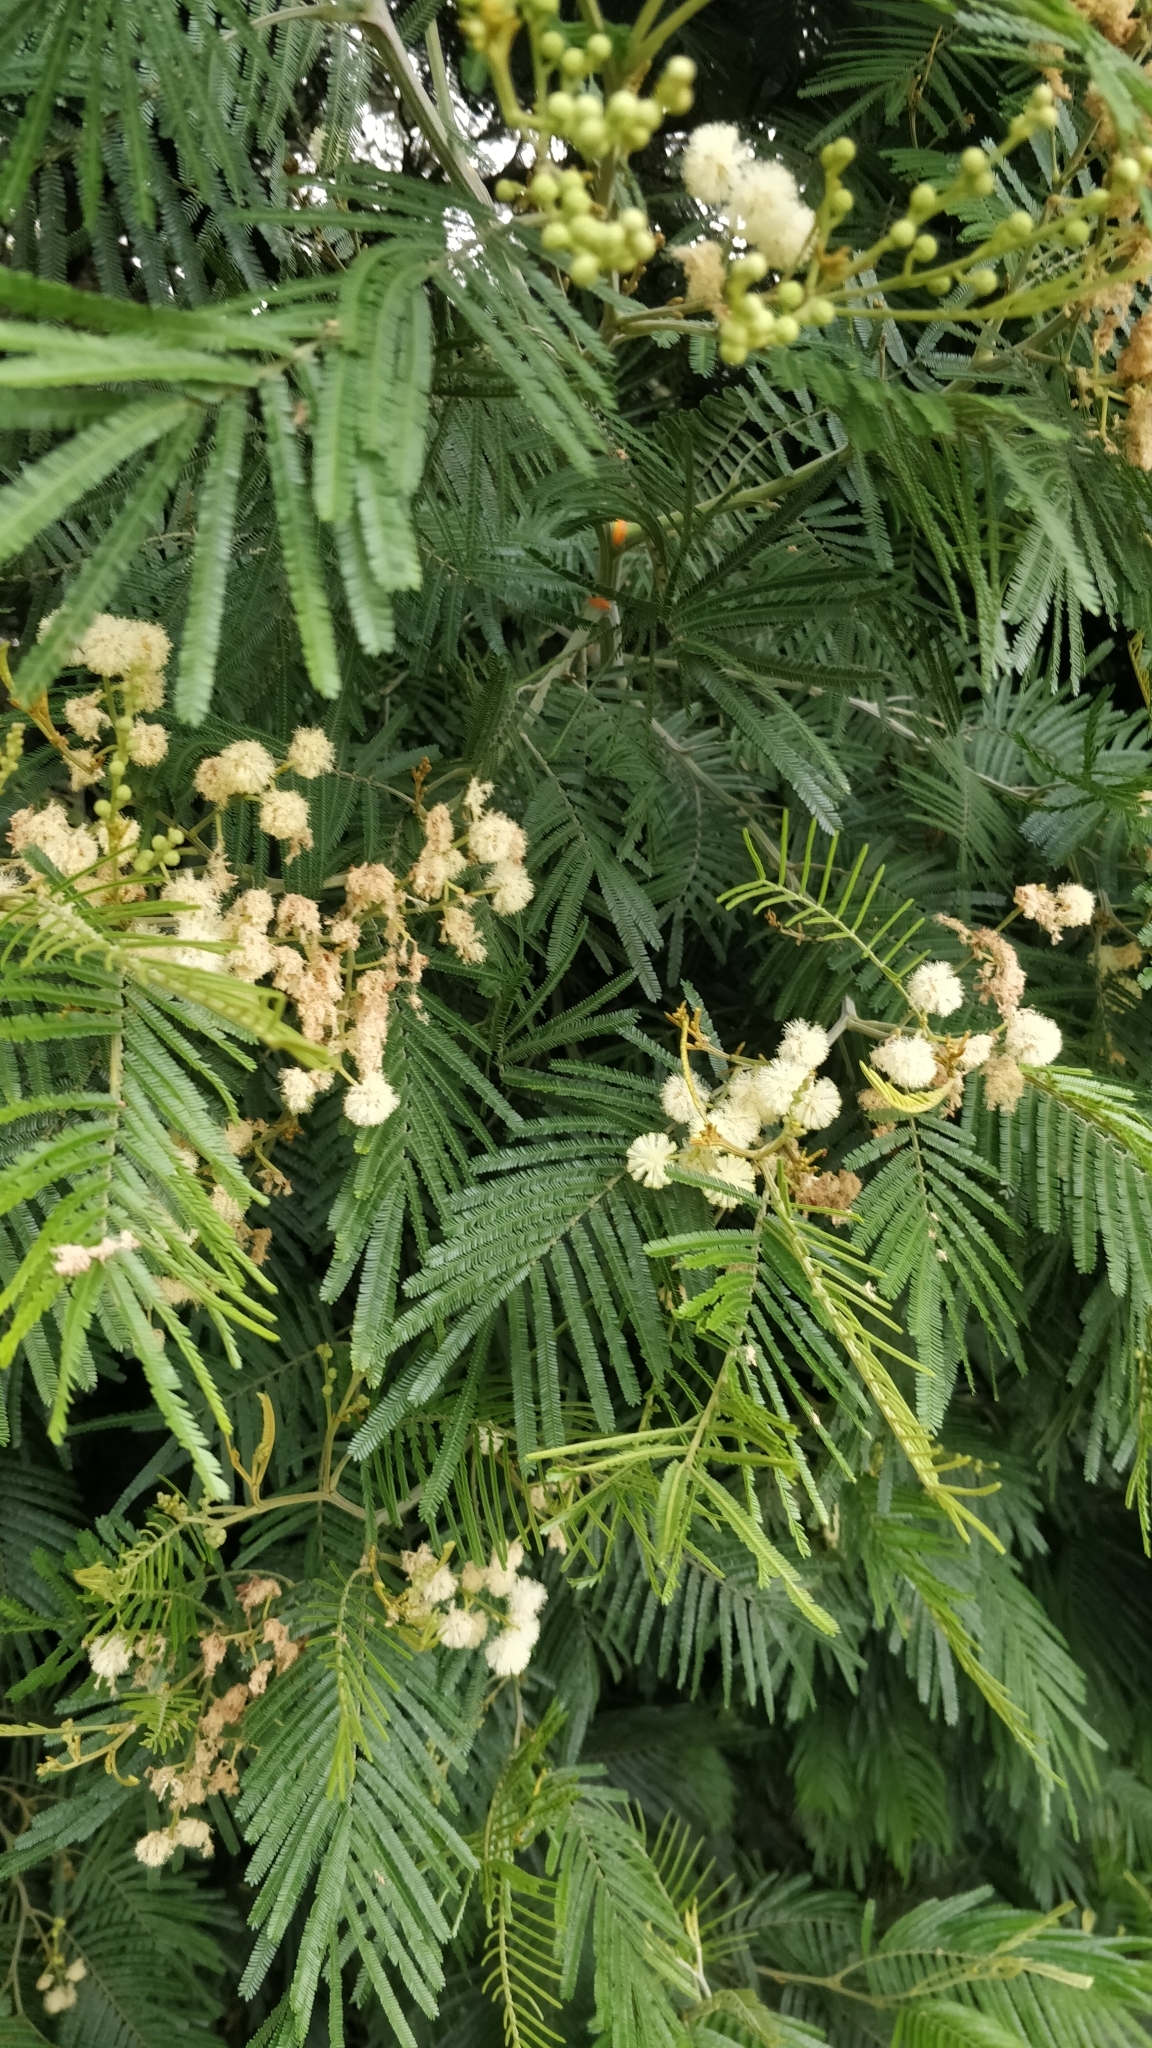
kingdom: Plantae
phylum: Tracheophyta
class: Magnoliopsida
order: Fabales
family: Fabaceae
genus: Acacia
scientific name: Acacia mearnsii
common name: Black wattle
